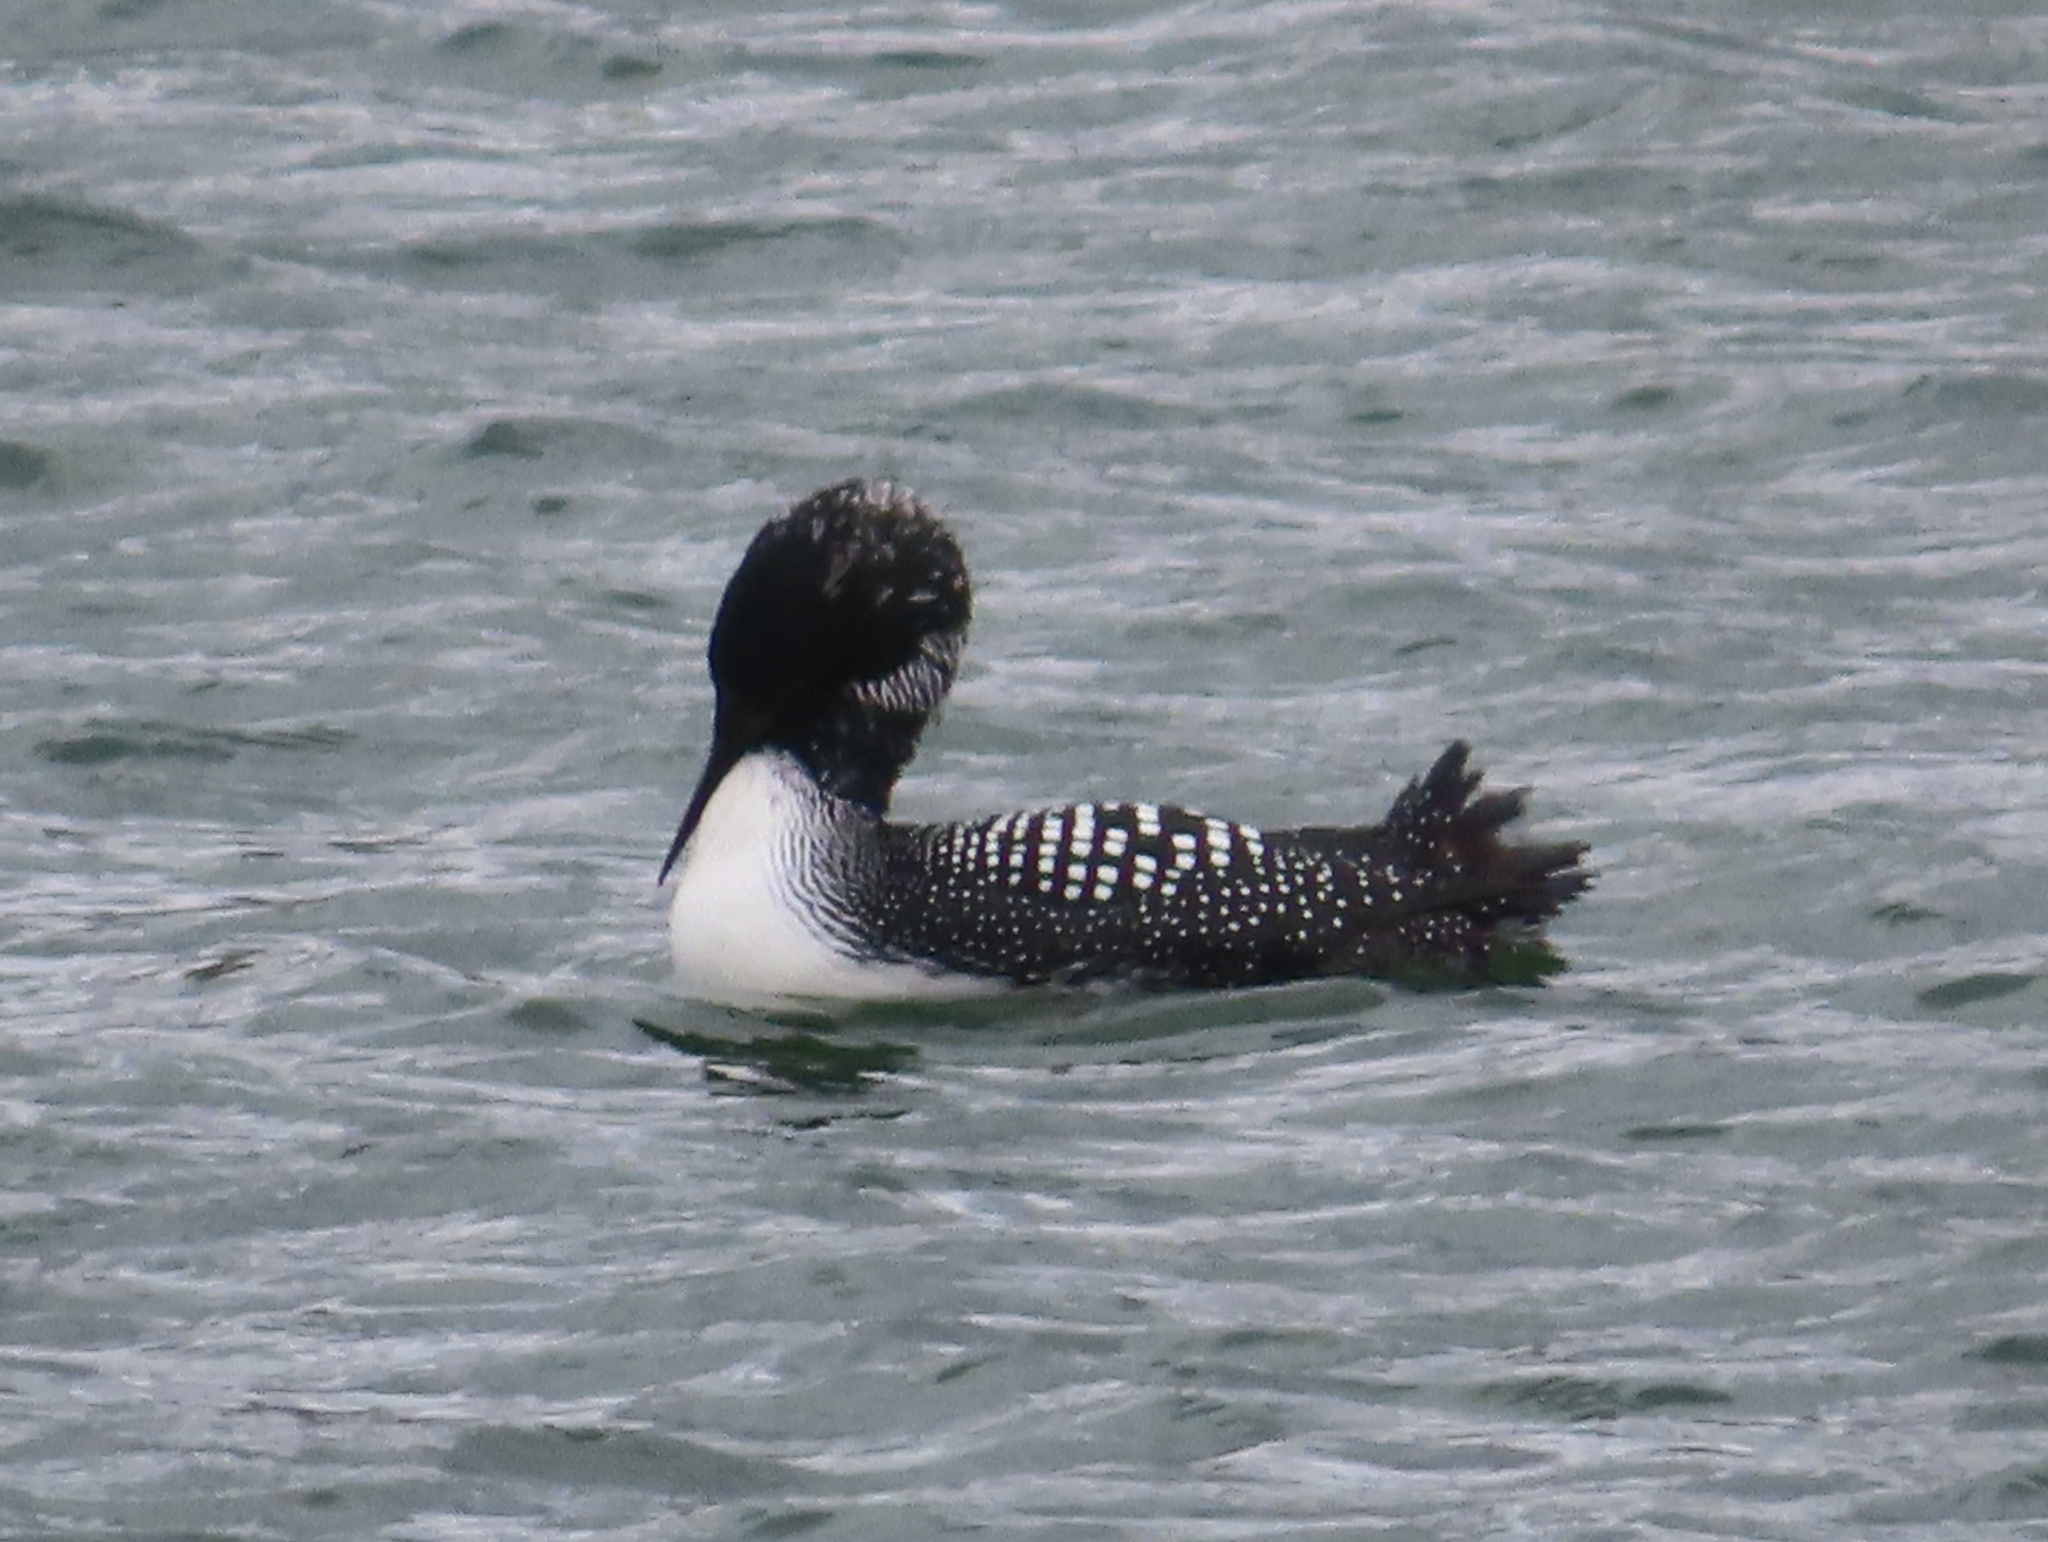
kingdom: Animalia
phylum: Chordata
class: Aves
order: Gaviiformes
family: Gaviidae
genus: Gavia
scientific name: Gavia immer
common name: Common loon
